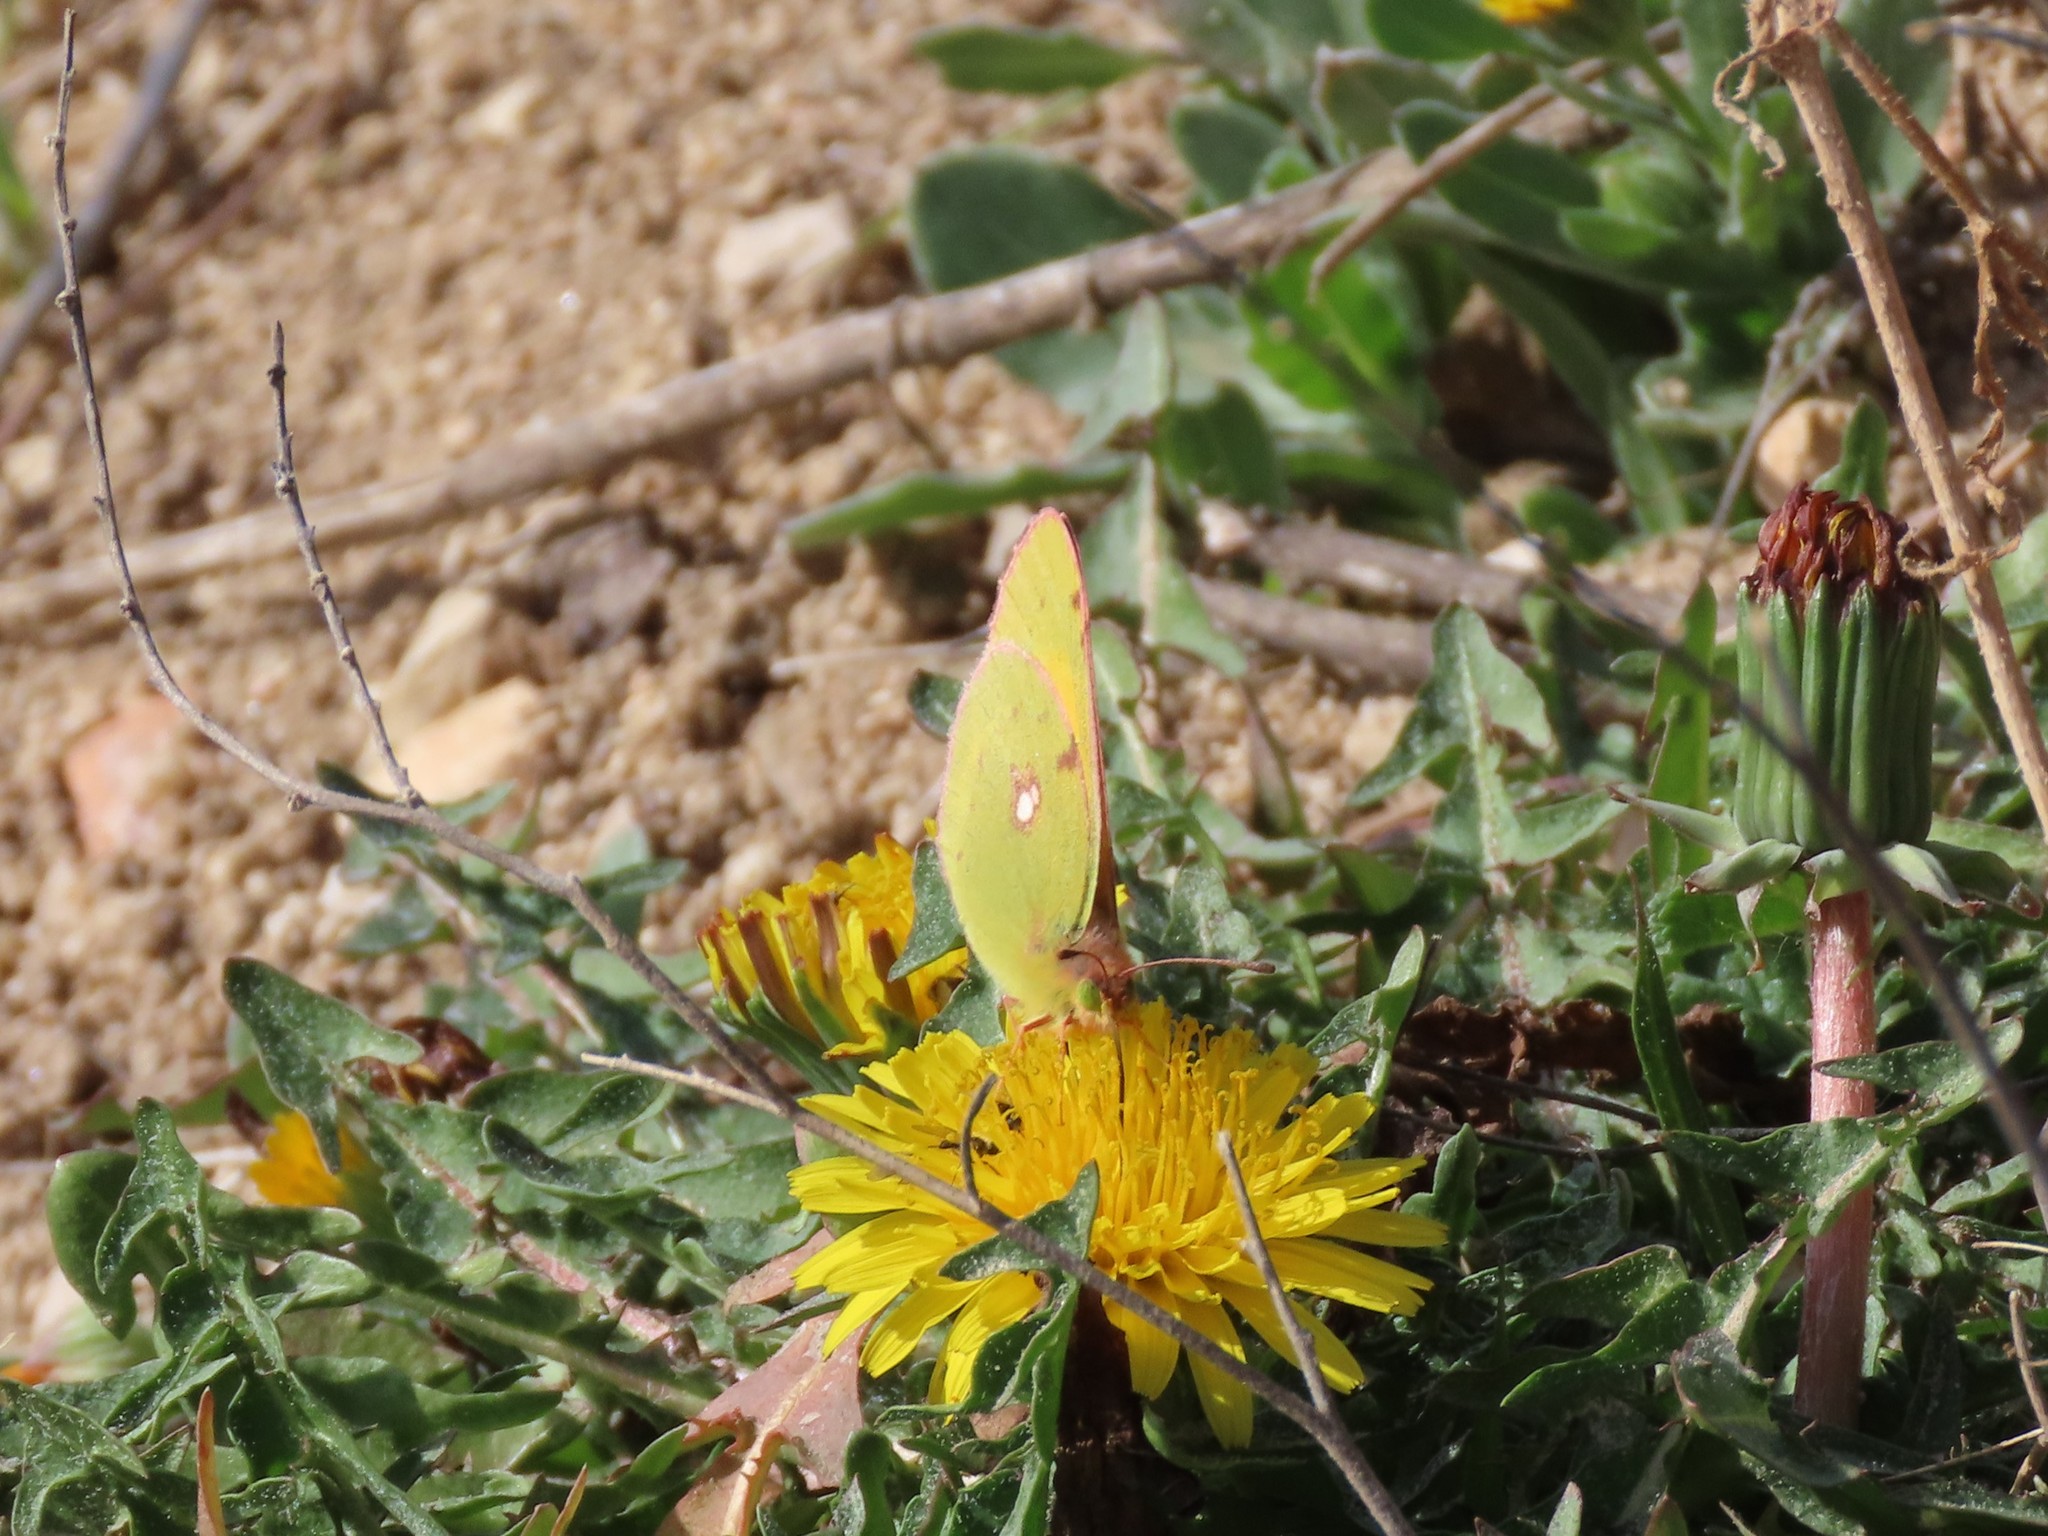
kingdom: Animalia
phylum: Arthropoda
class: Insecta
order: Lepidoptera
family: Pieridae
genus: Colias
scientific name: Colias croceus
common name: Clouded yellow
